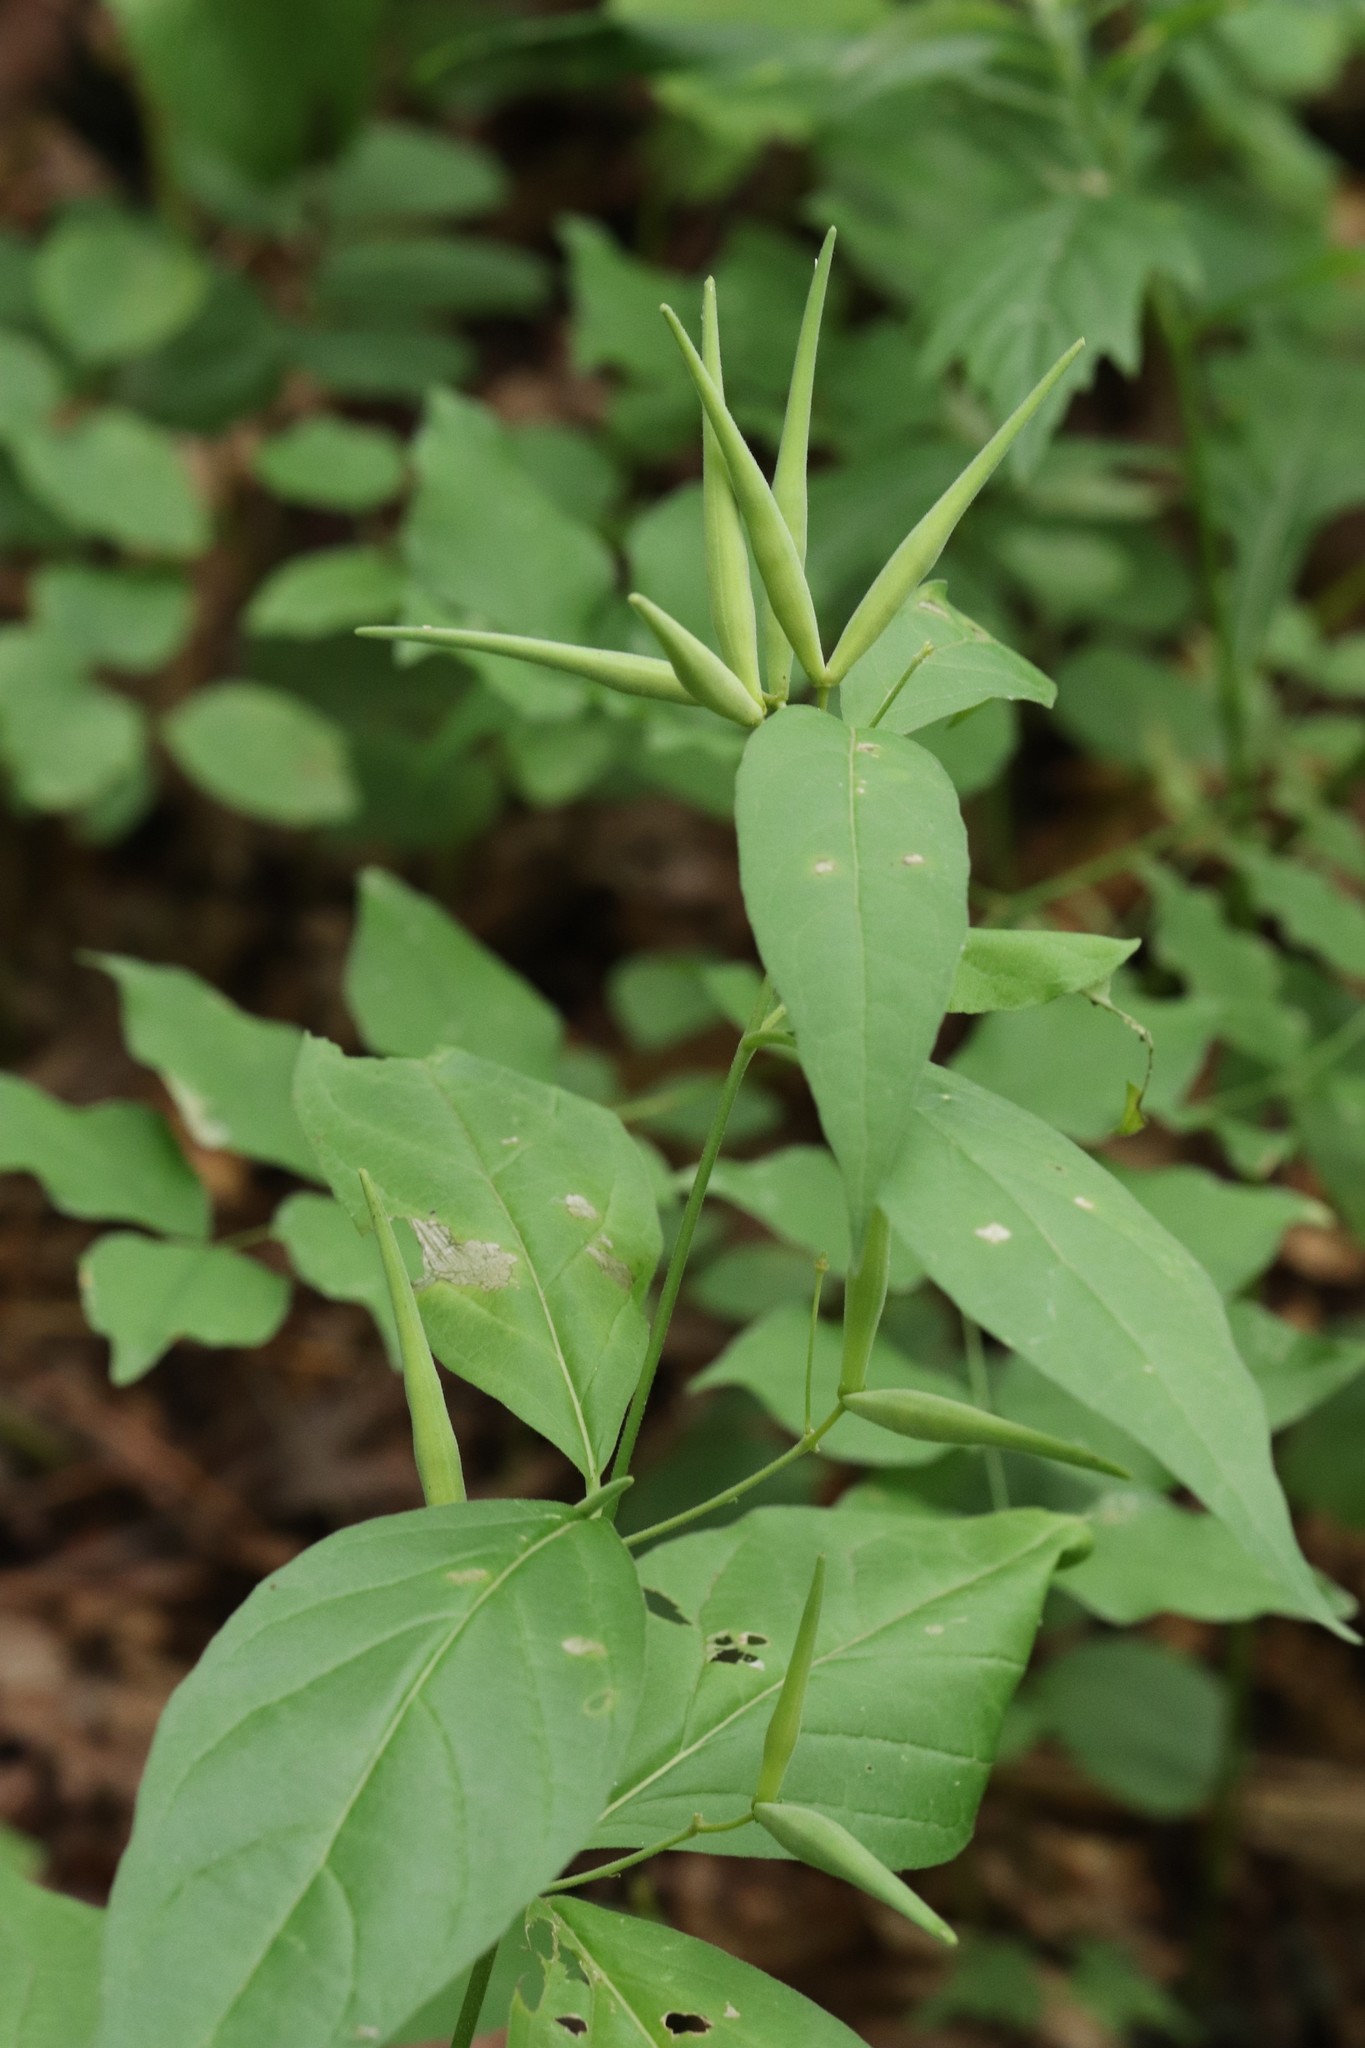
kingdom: Plantae
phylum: Tracheophyta
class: Magnoliopsida
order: Gentianales
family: Apocynaceae
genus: Vincetoxicum
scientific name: Vincetoxicum ascyrifolium
